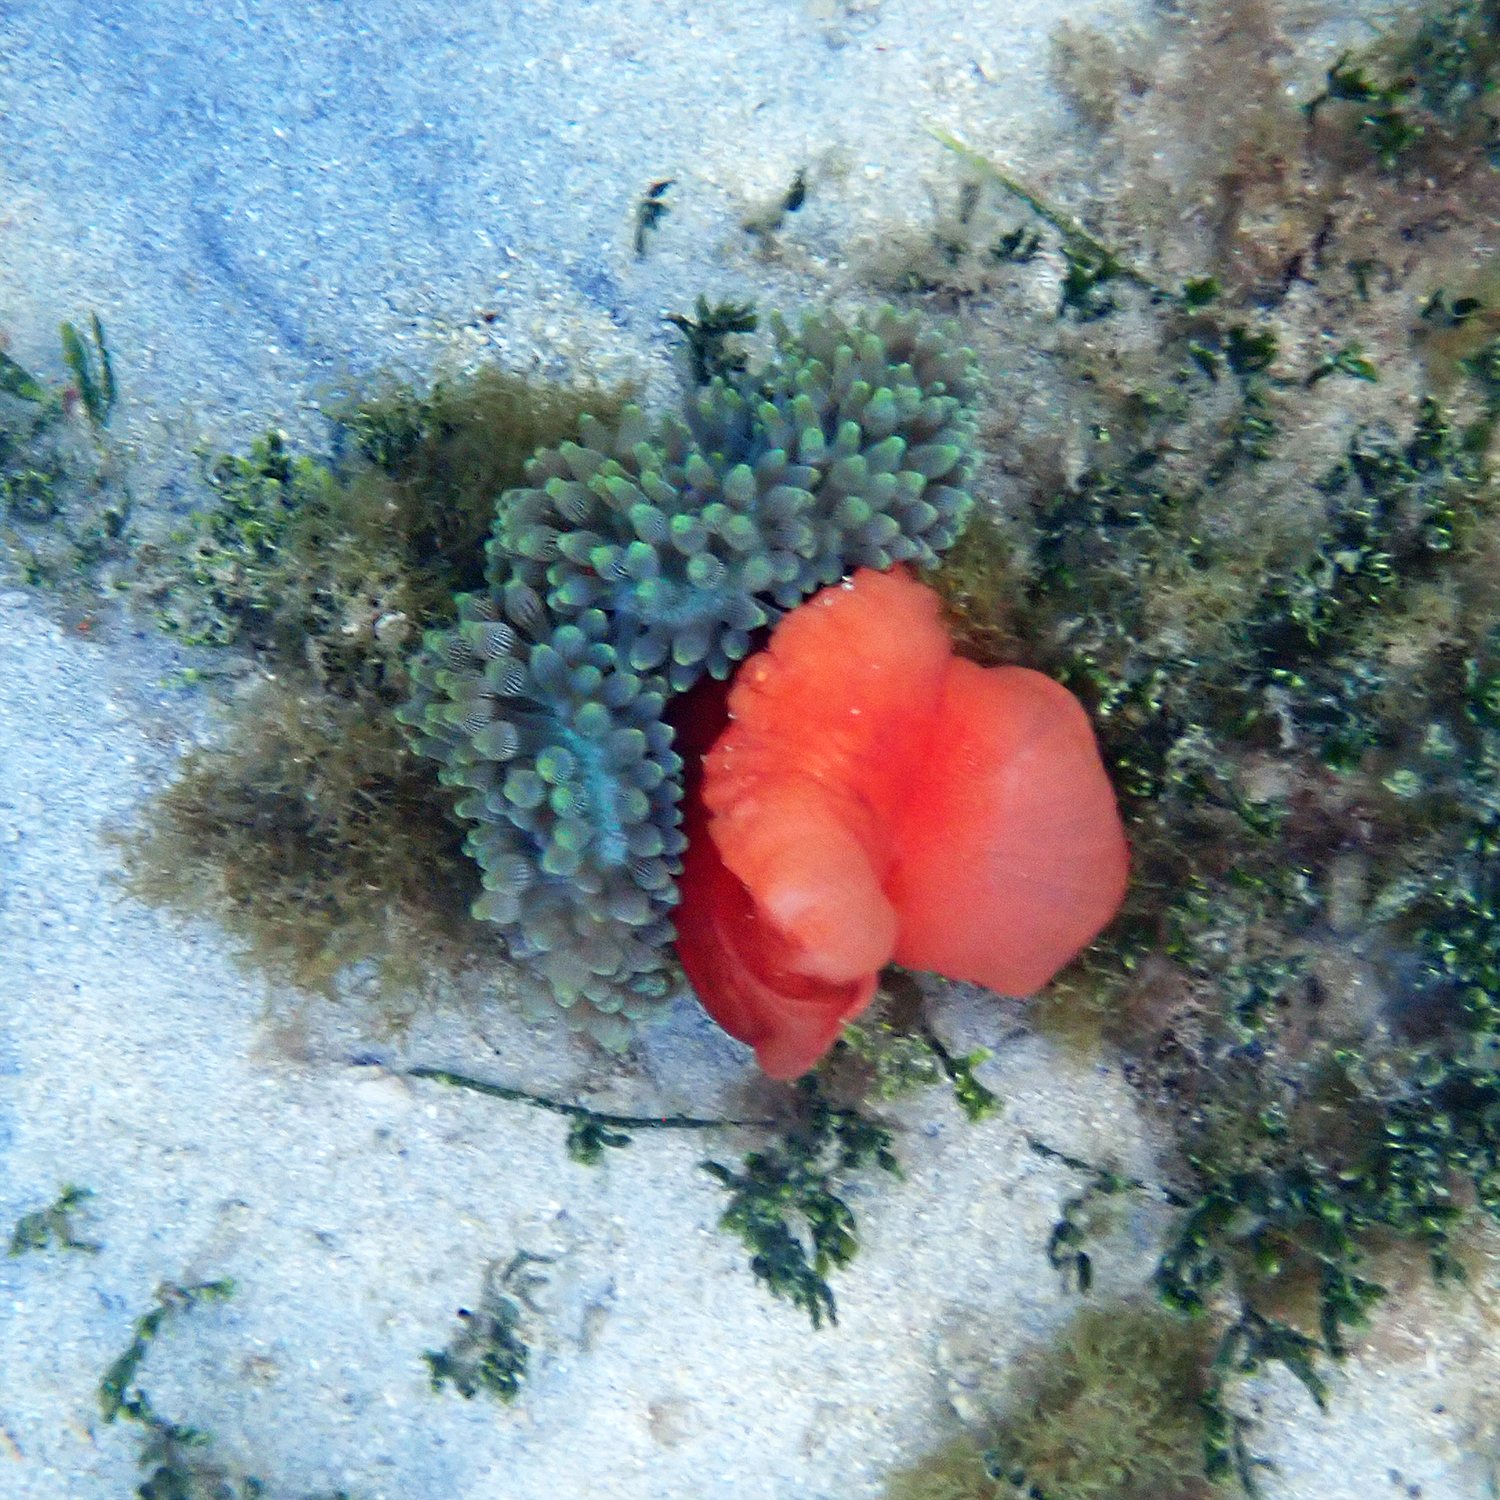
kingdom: Animalia
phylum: Cnidaria
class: Anthozoa
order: Actiniaria
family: Actiniidae
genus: Entacmaea
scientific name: Entacmaea quadricolor
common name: Bulb tentacle sea anemone
